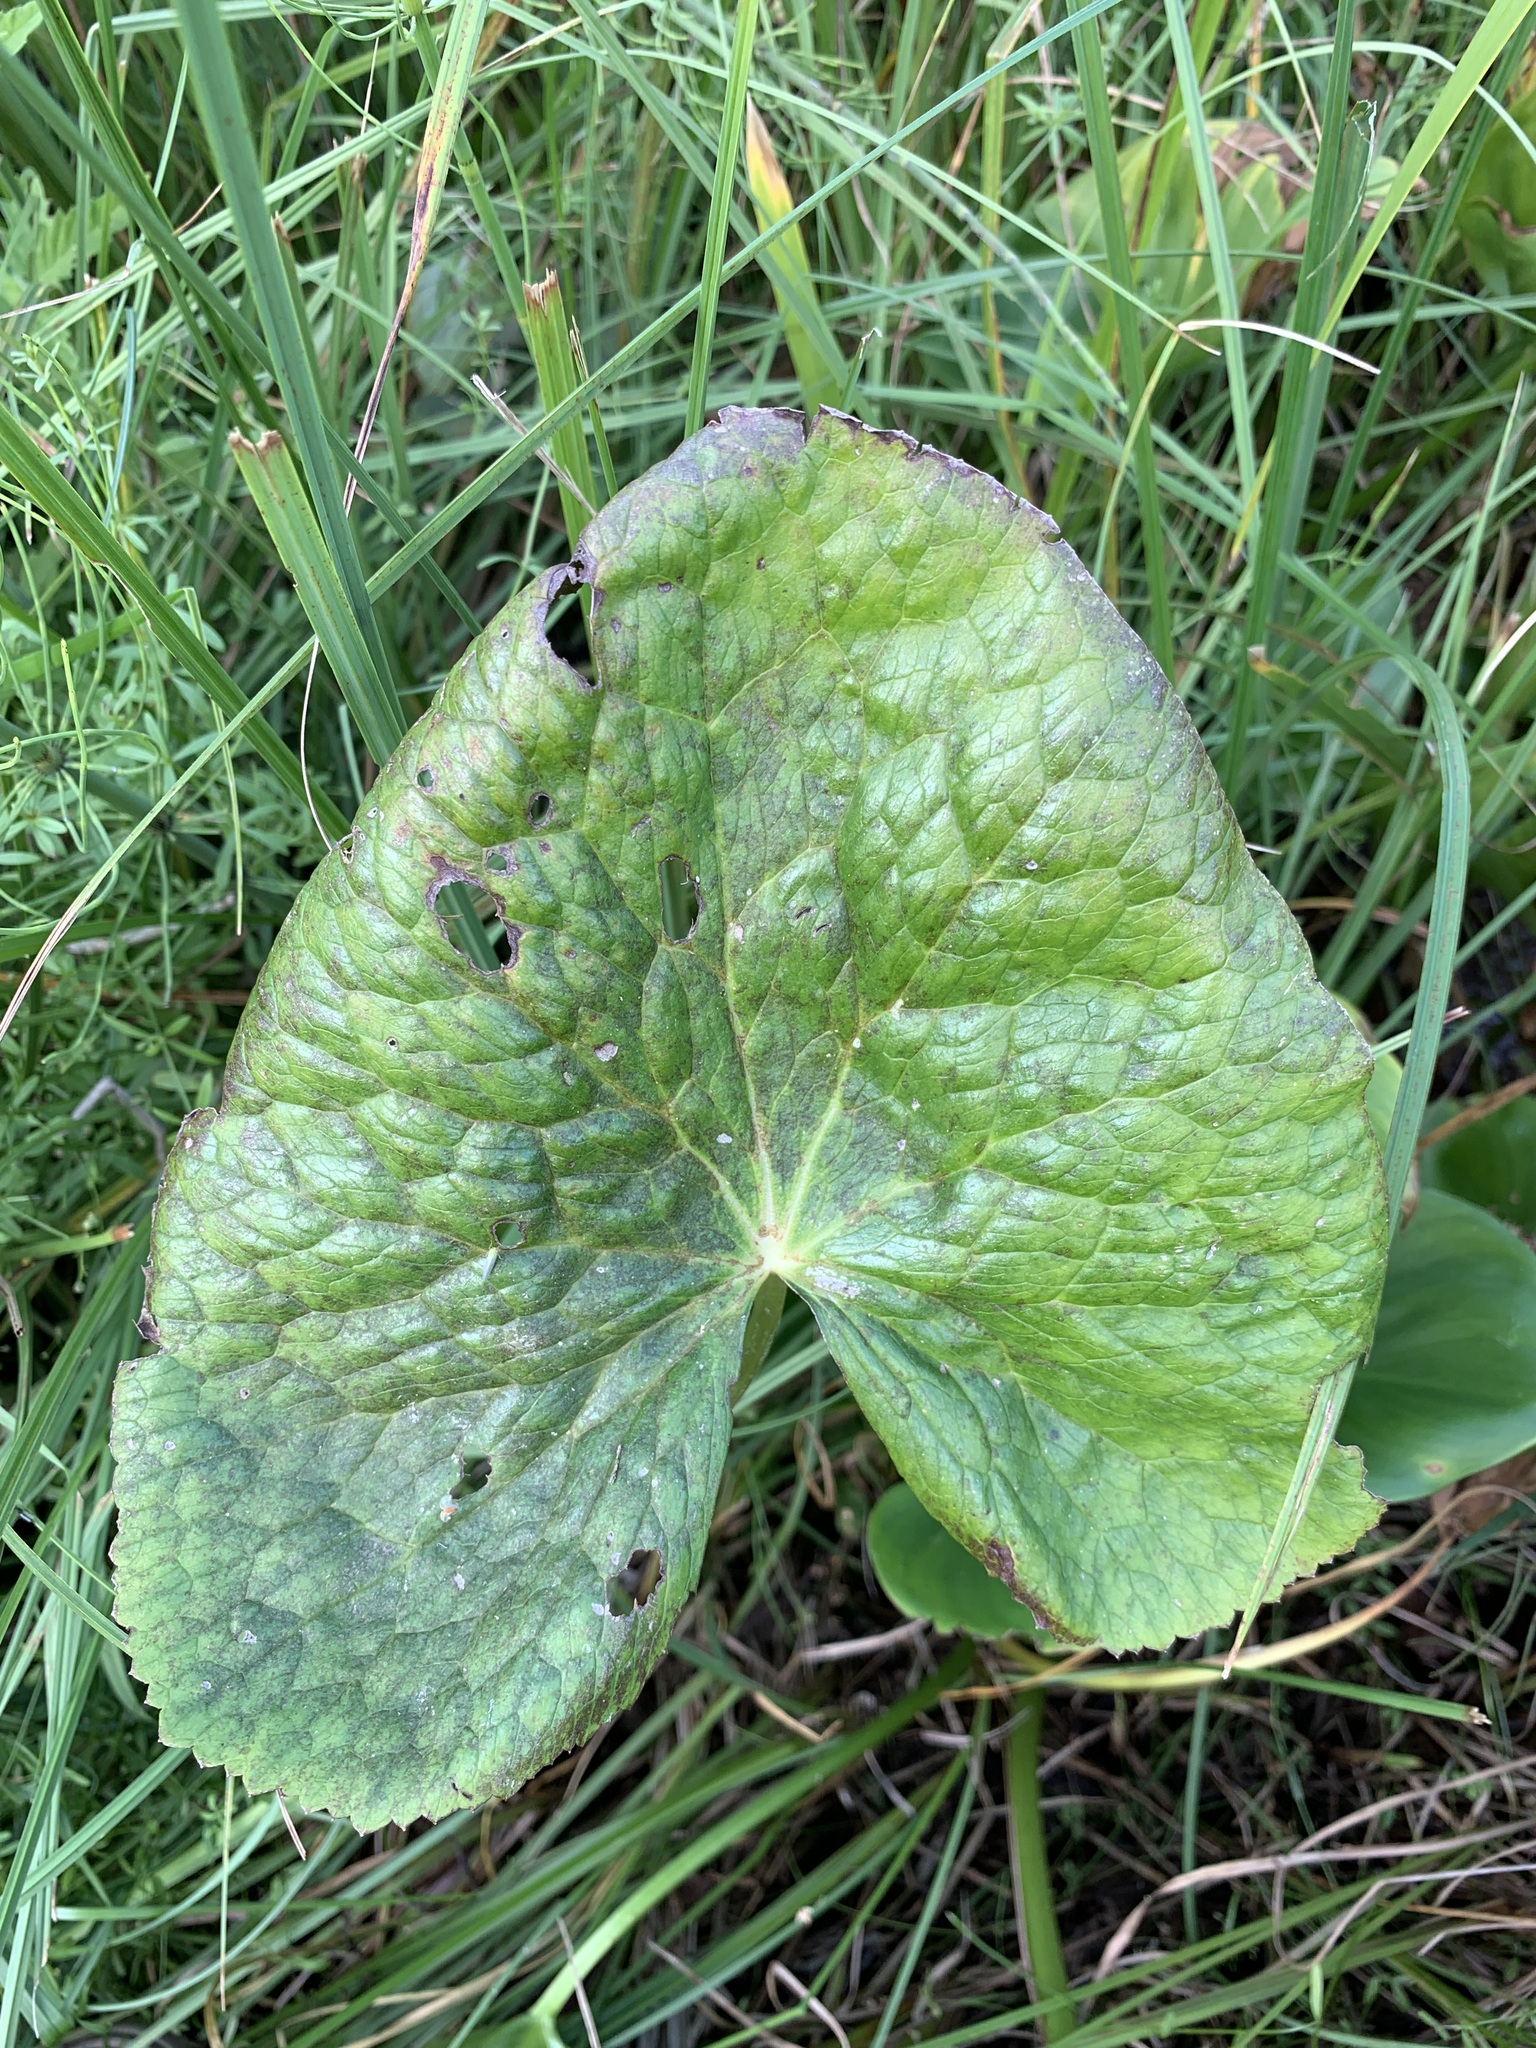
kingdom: Plantae
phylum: Tracheophyta
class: Magnoliopsida
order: Ranunculales
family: Ranunculaceae
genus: Caltha
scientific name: Caltha palustris
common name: Marsh marigold
